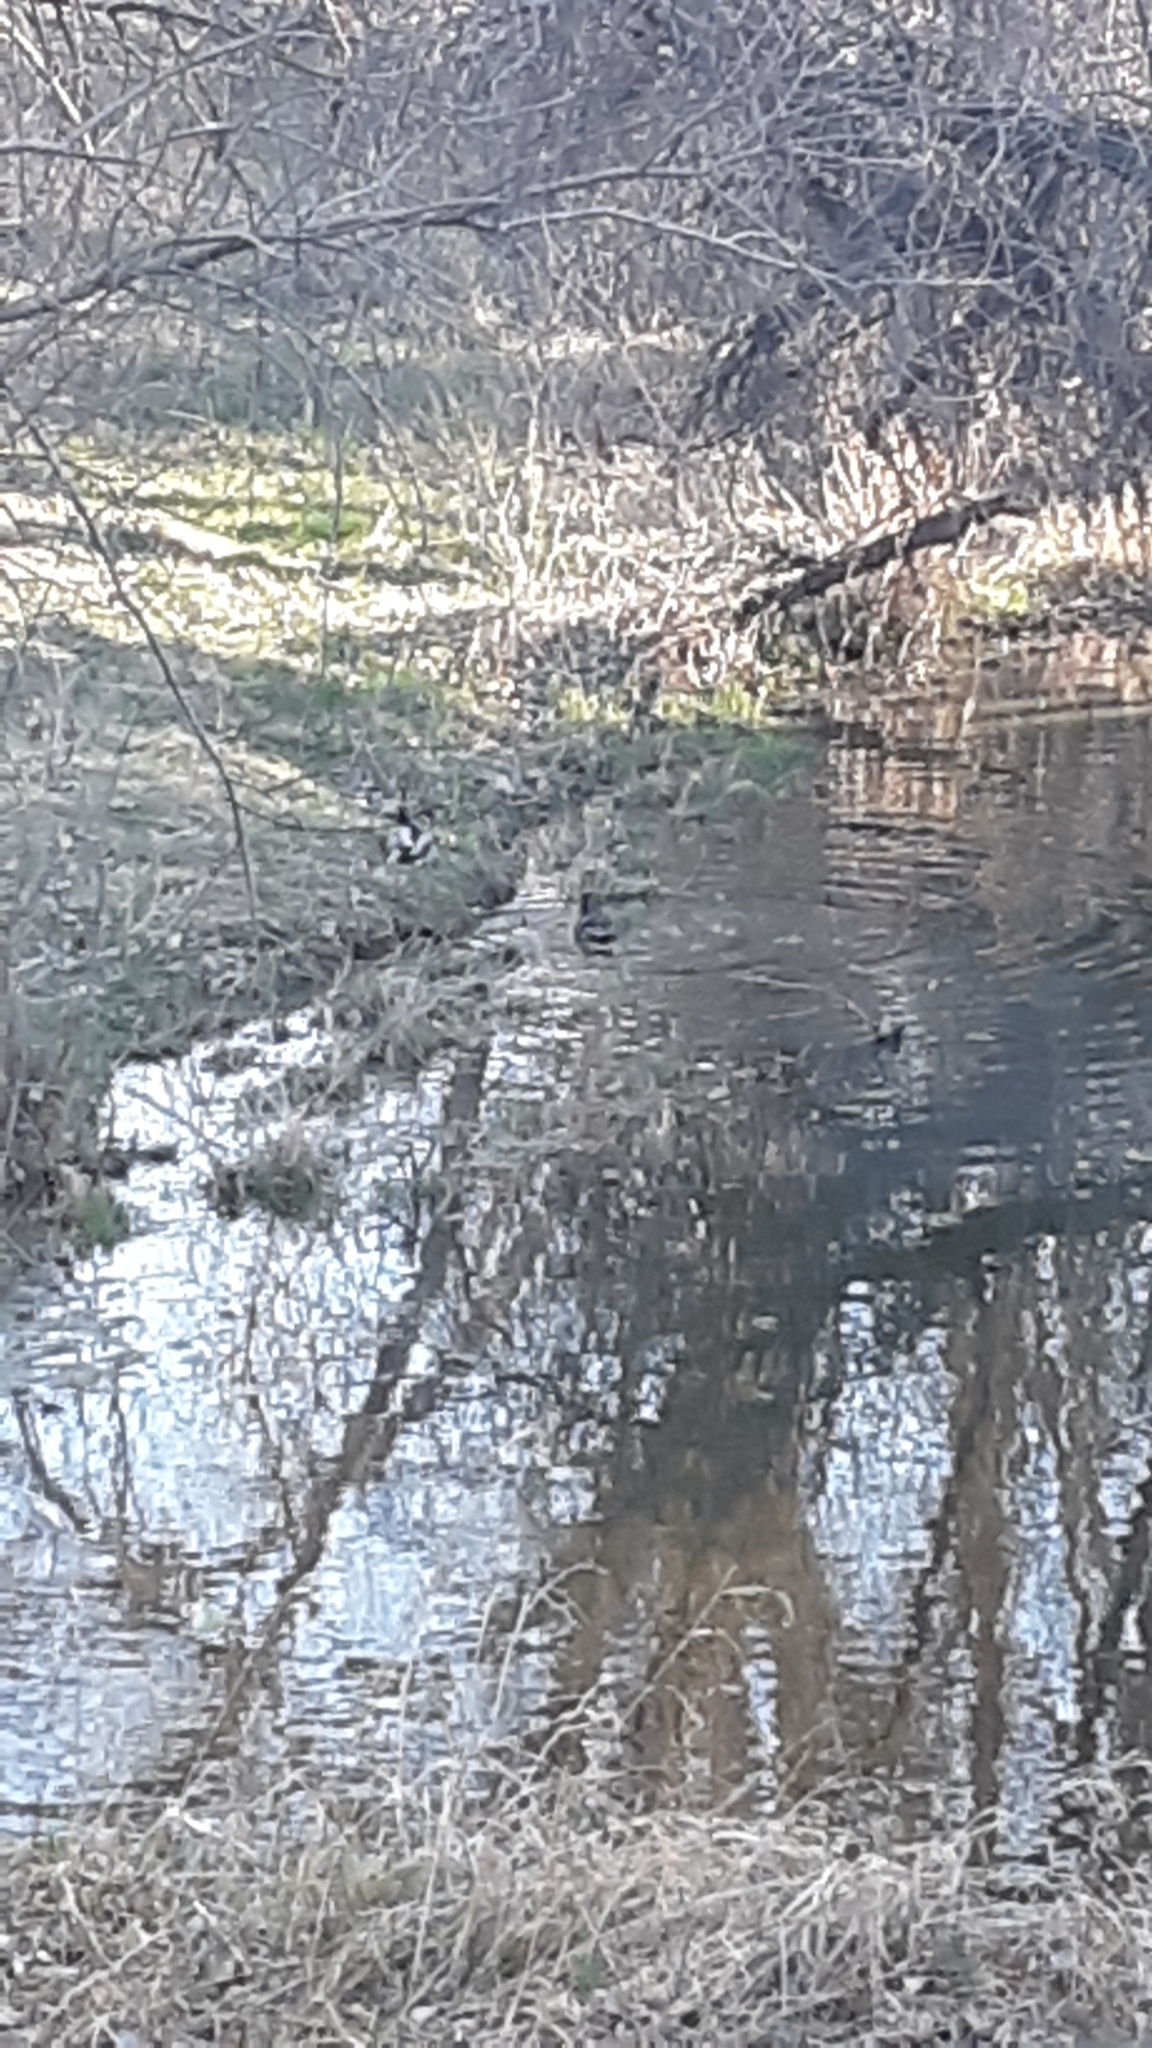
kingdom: Animalia
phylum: Chordata
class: Aves
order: Anseriformes
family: Anatidae
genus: Anas
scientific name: Anas platyrhynchos
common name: Mallard
